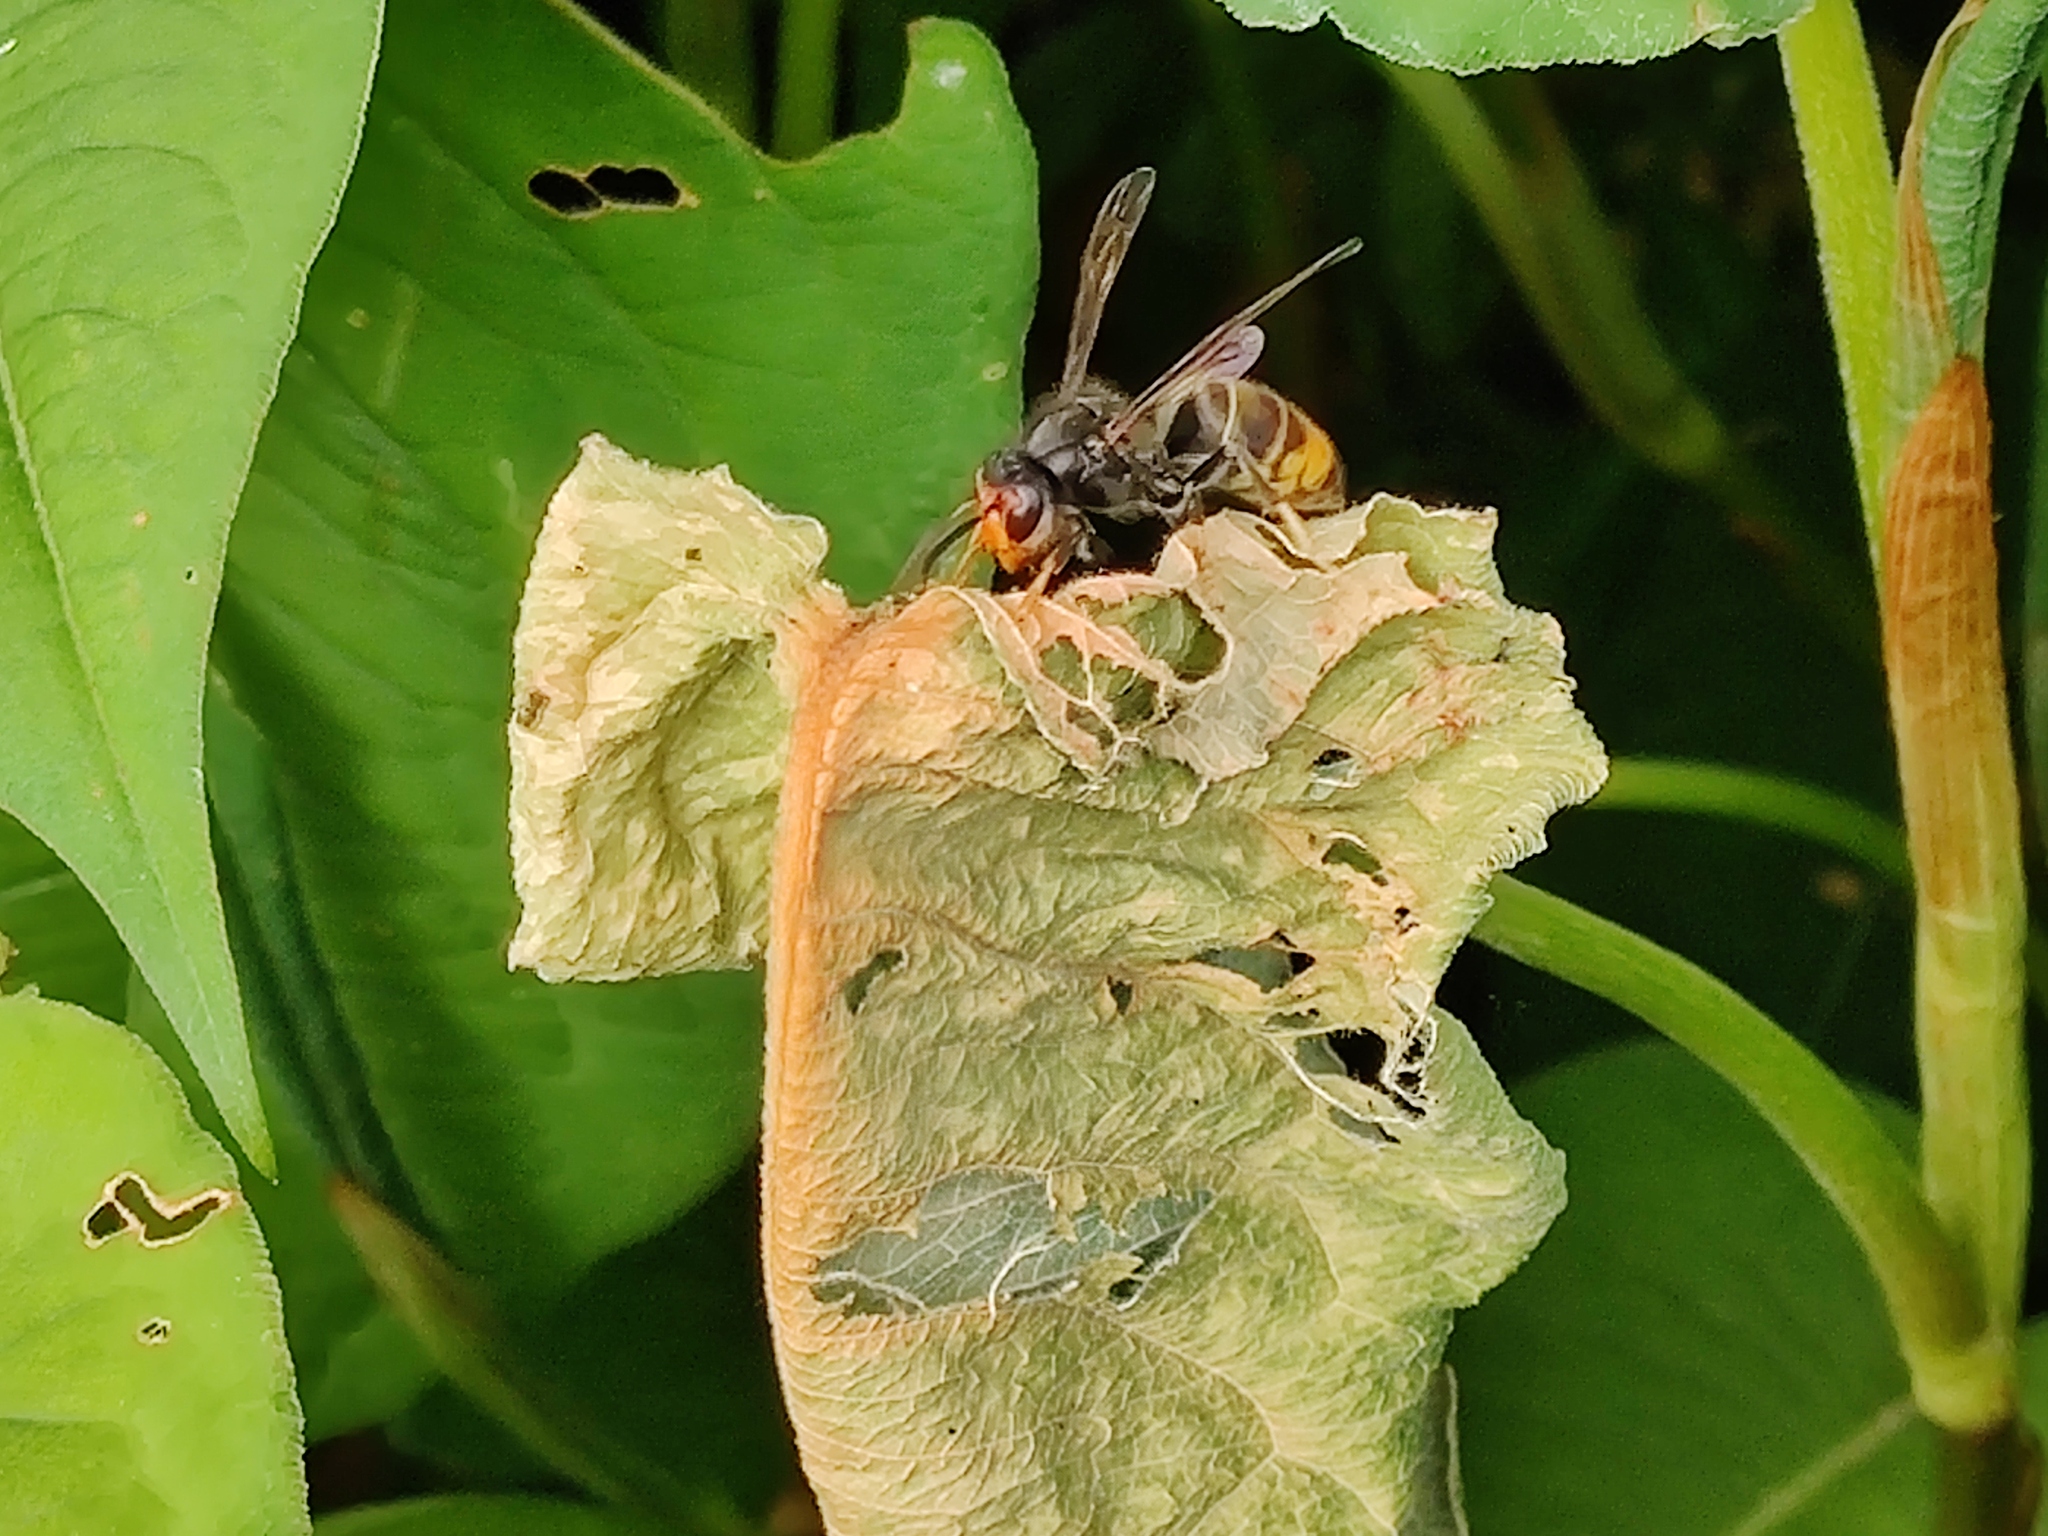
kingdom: Animalia
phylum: Arthropoda
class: Insecta
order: Hymenoptera
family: Vespidae
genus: Vespa
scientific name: Vespa velutina
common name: Asian hornet
